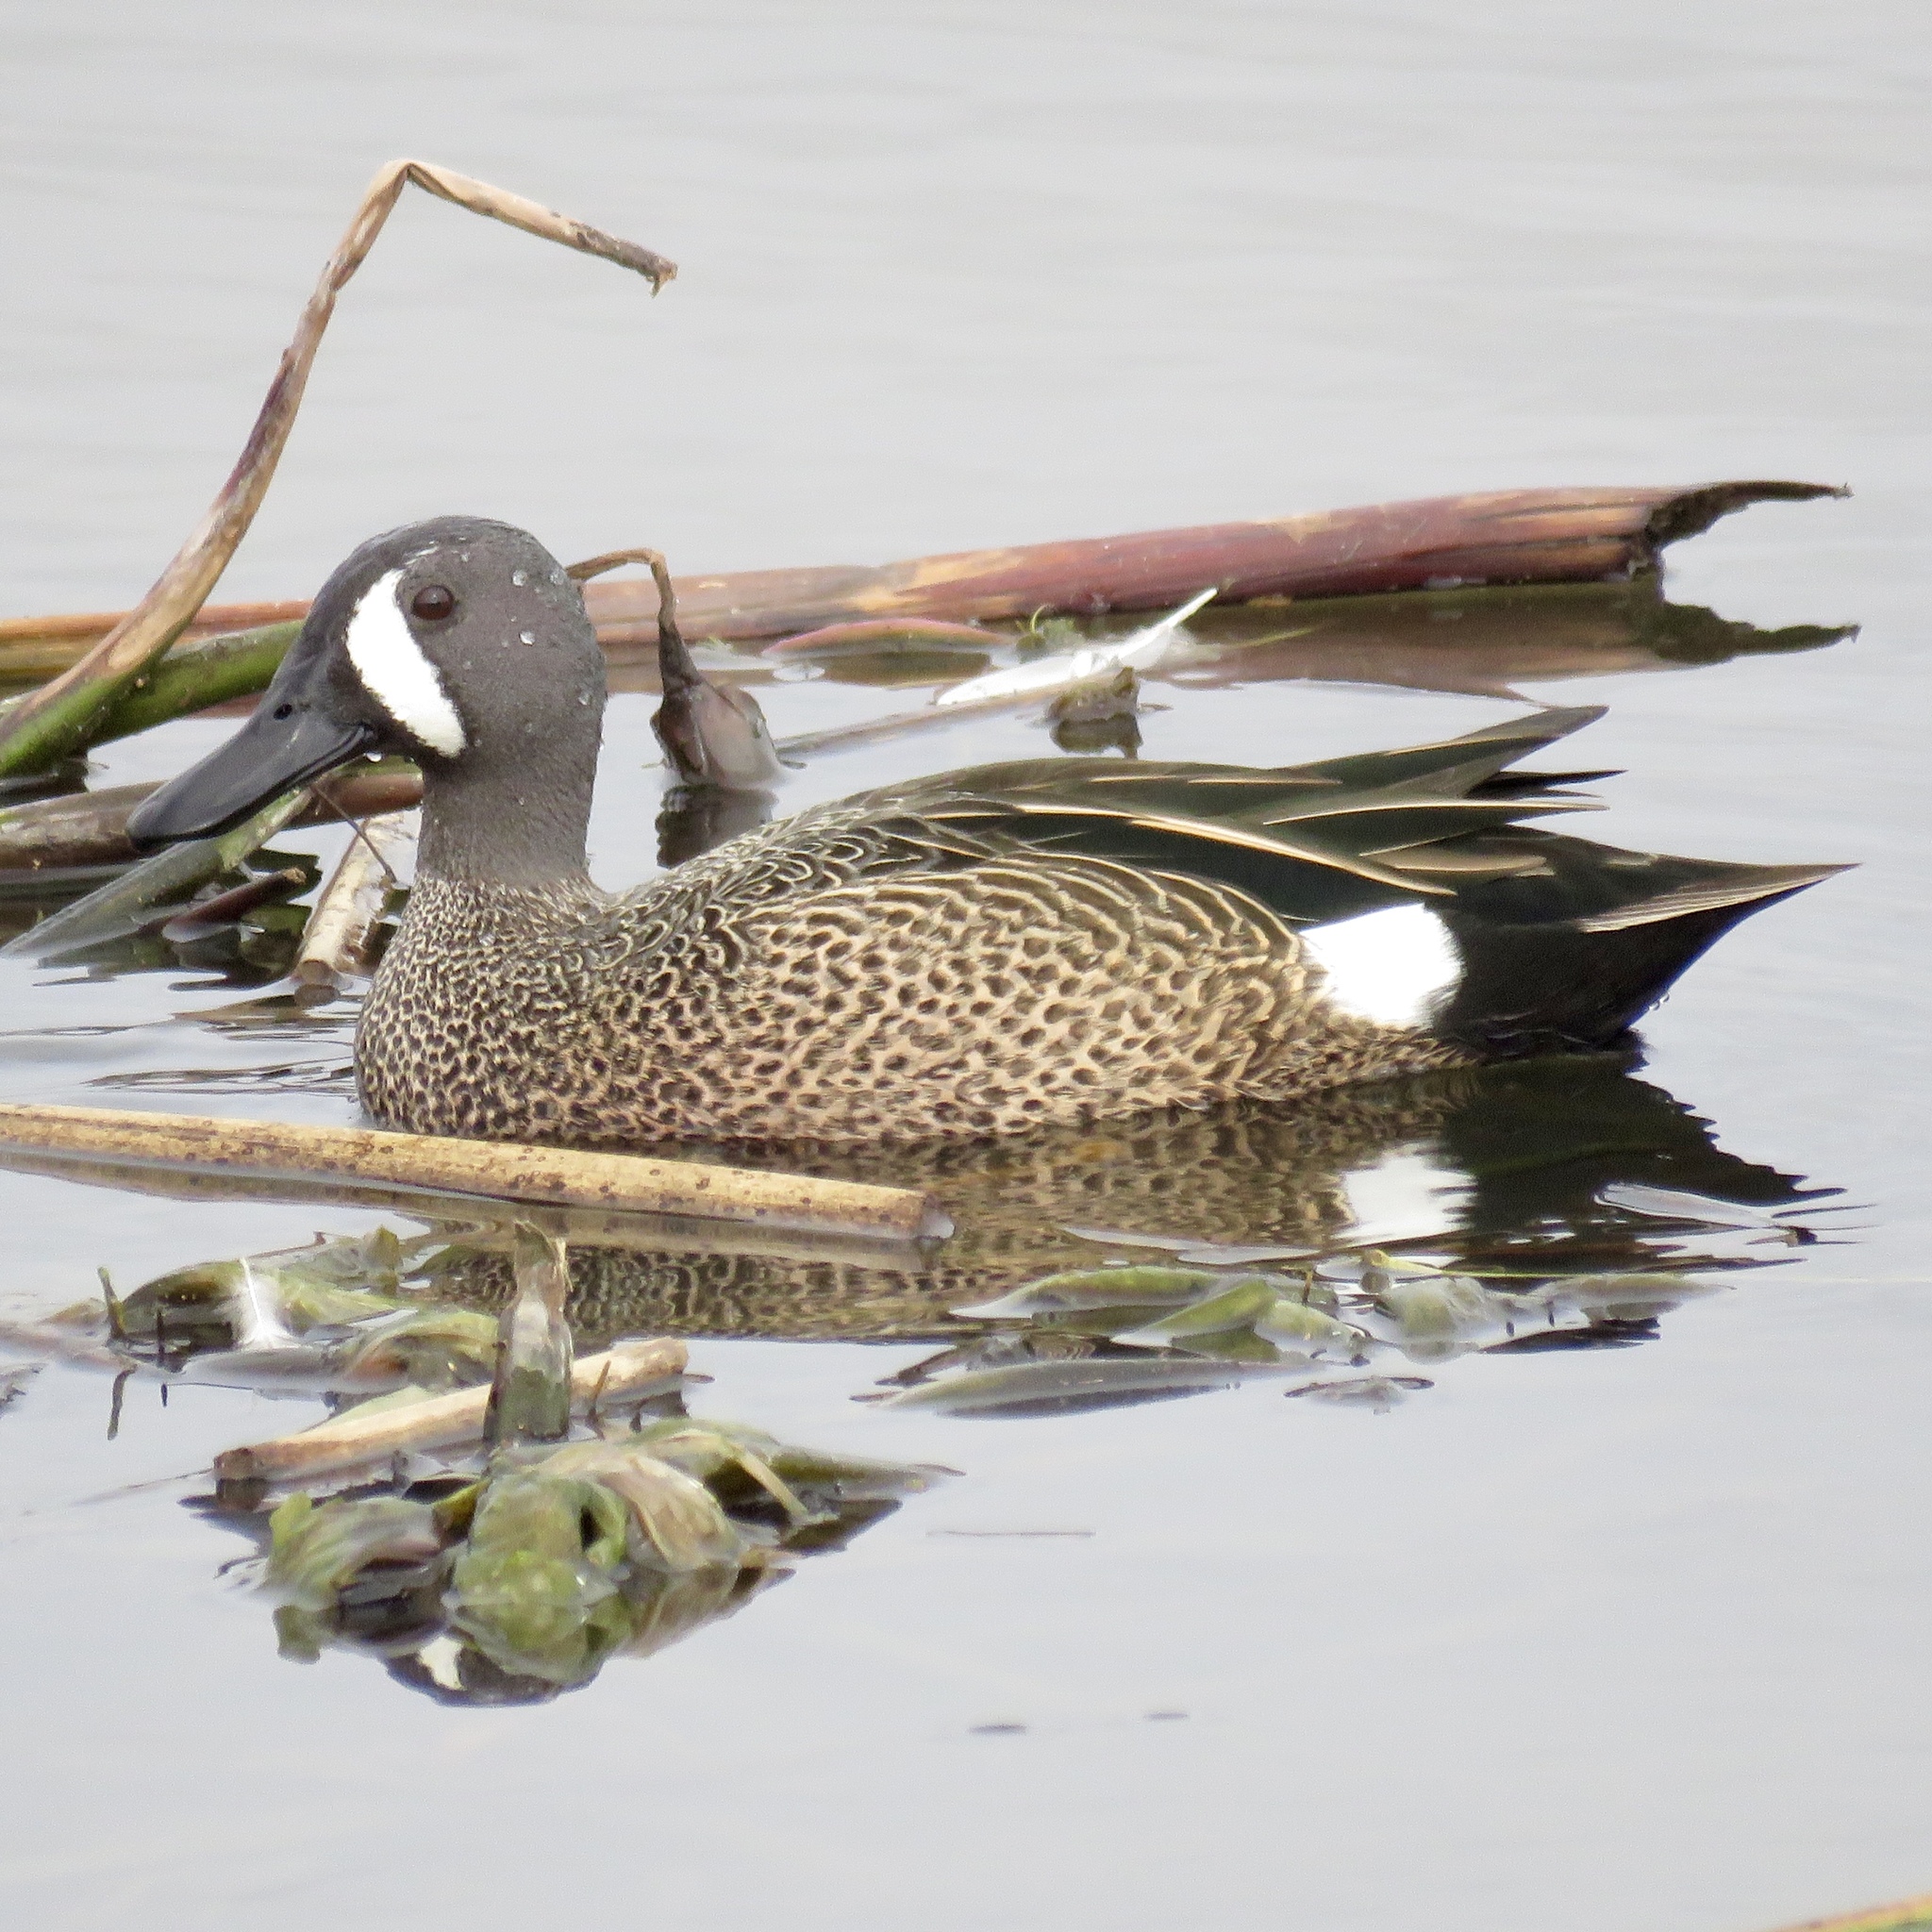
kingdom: Animalia
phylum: Chordata
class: Aves
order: Anseriformes
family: Anatidae
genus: Spatula
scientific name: Spatula discors
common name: Blue-winged teal
